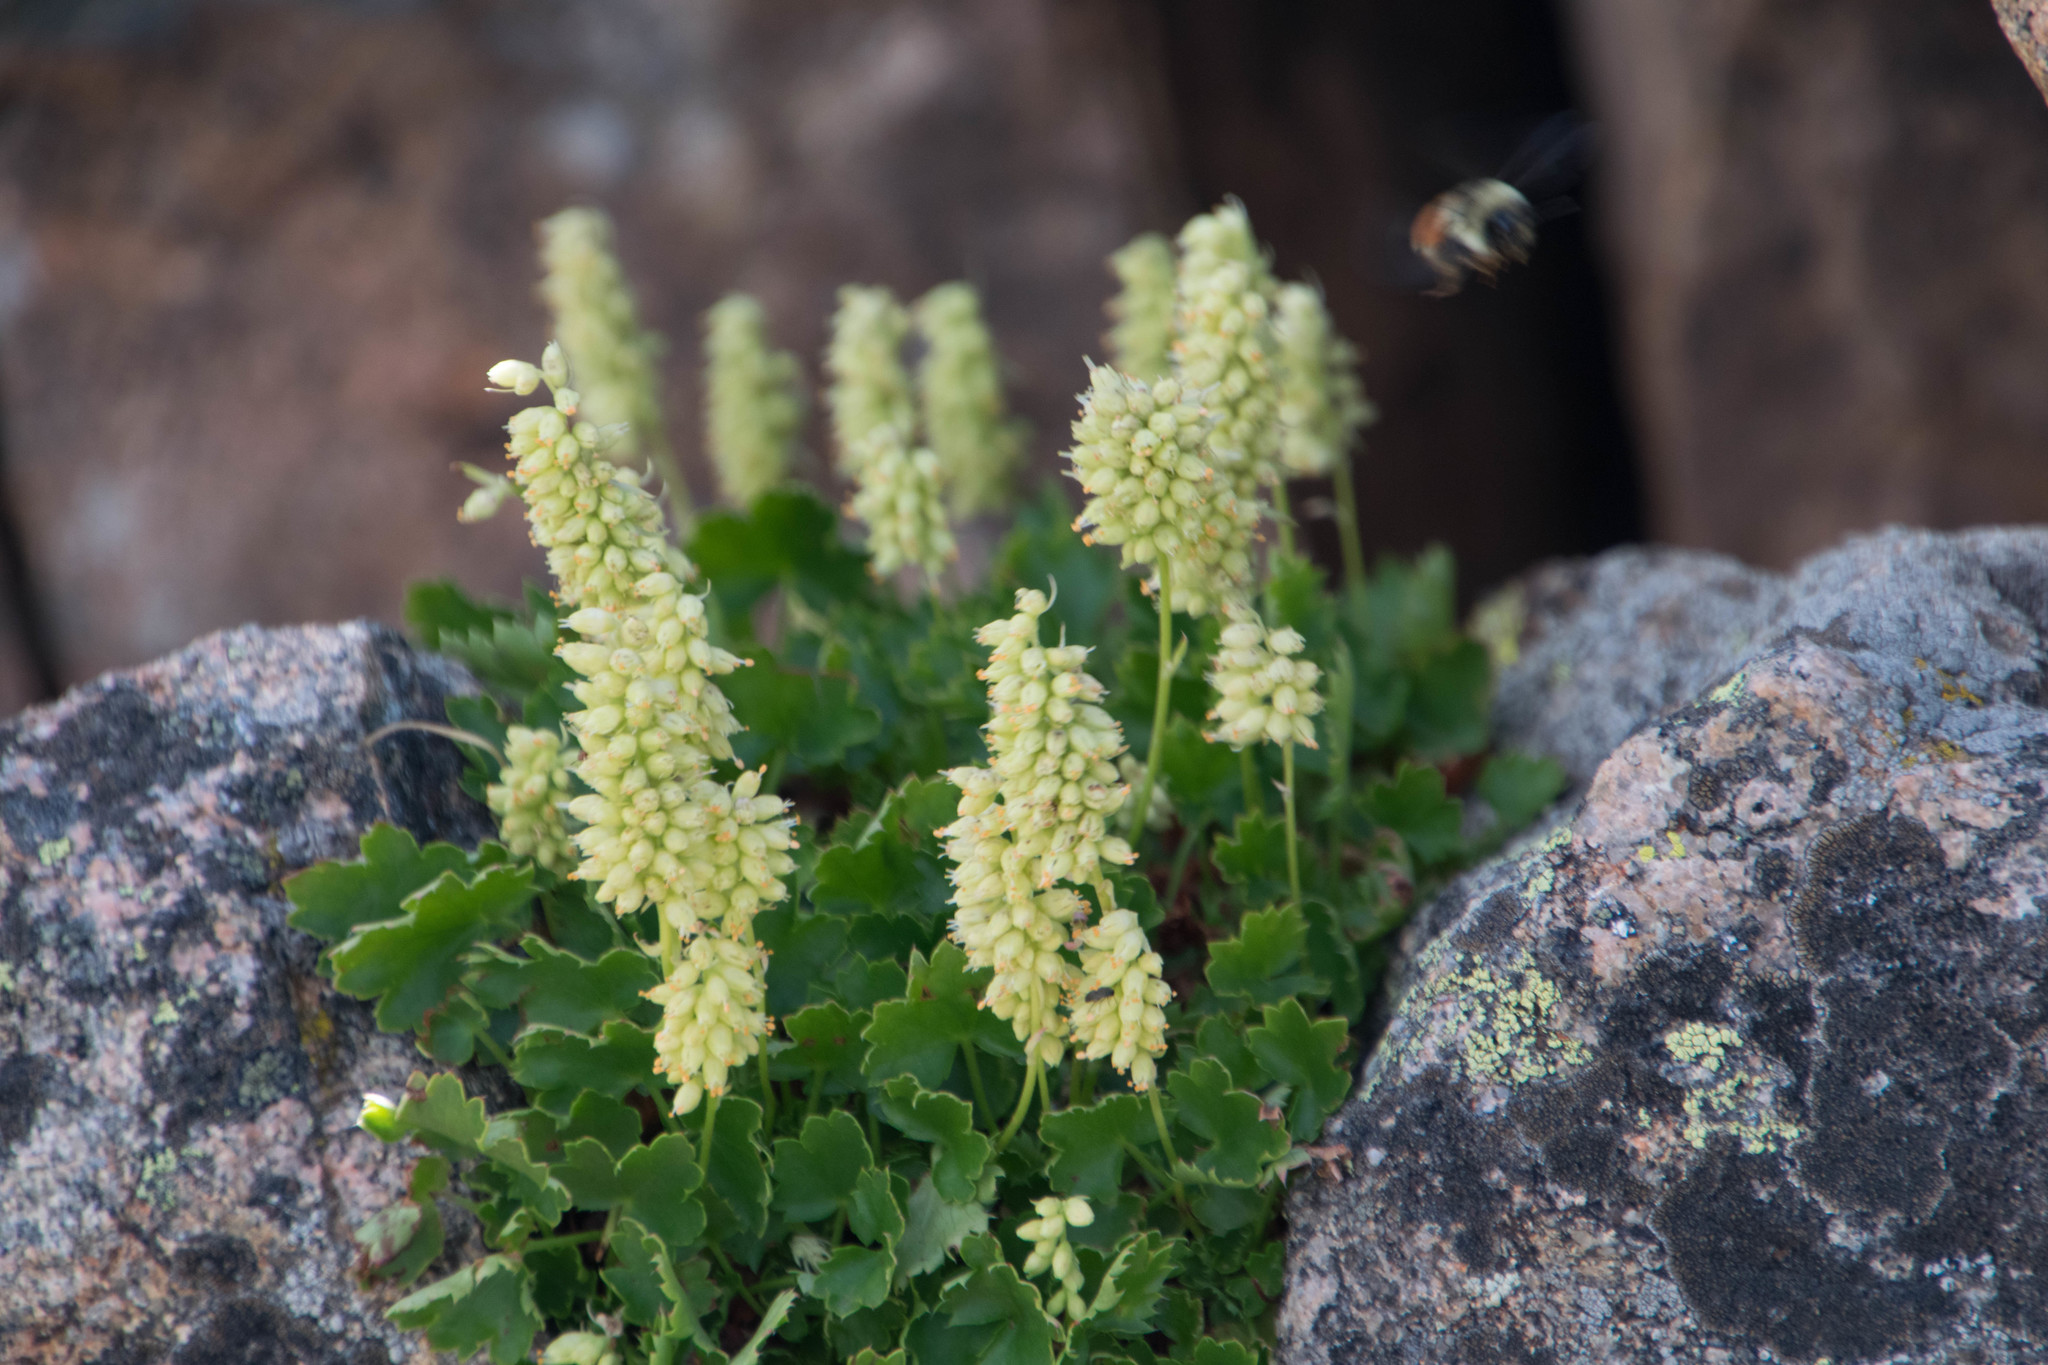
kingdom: Plantae
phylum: Tracheophyta
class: Magnoliopsida
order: Saxifragales
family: Saxifragaceae
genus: Heuchera
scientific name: Heuchera bracteata
